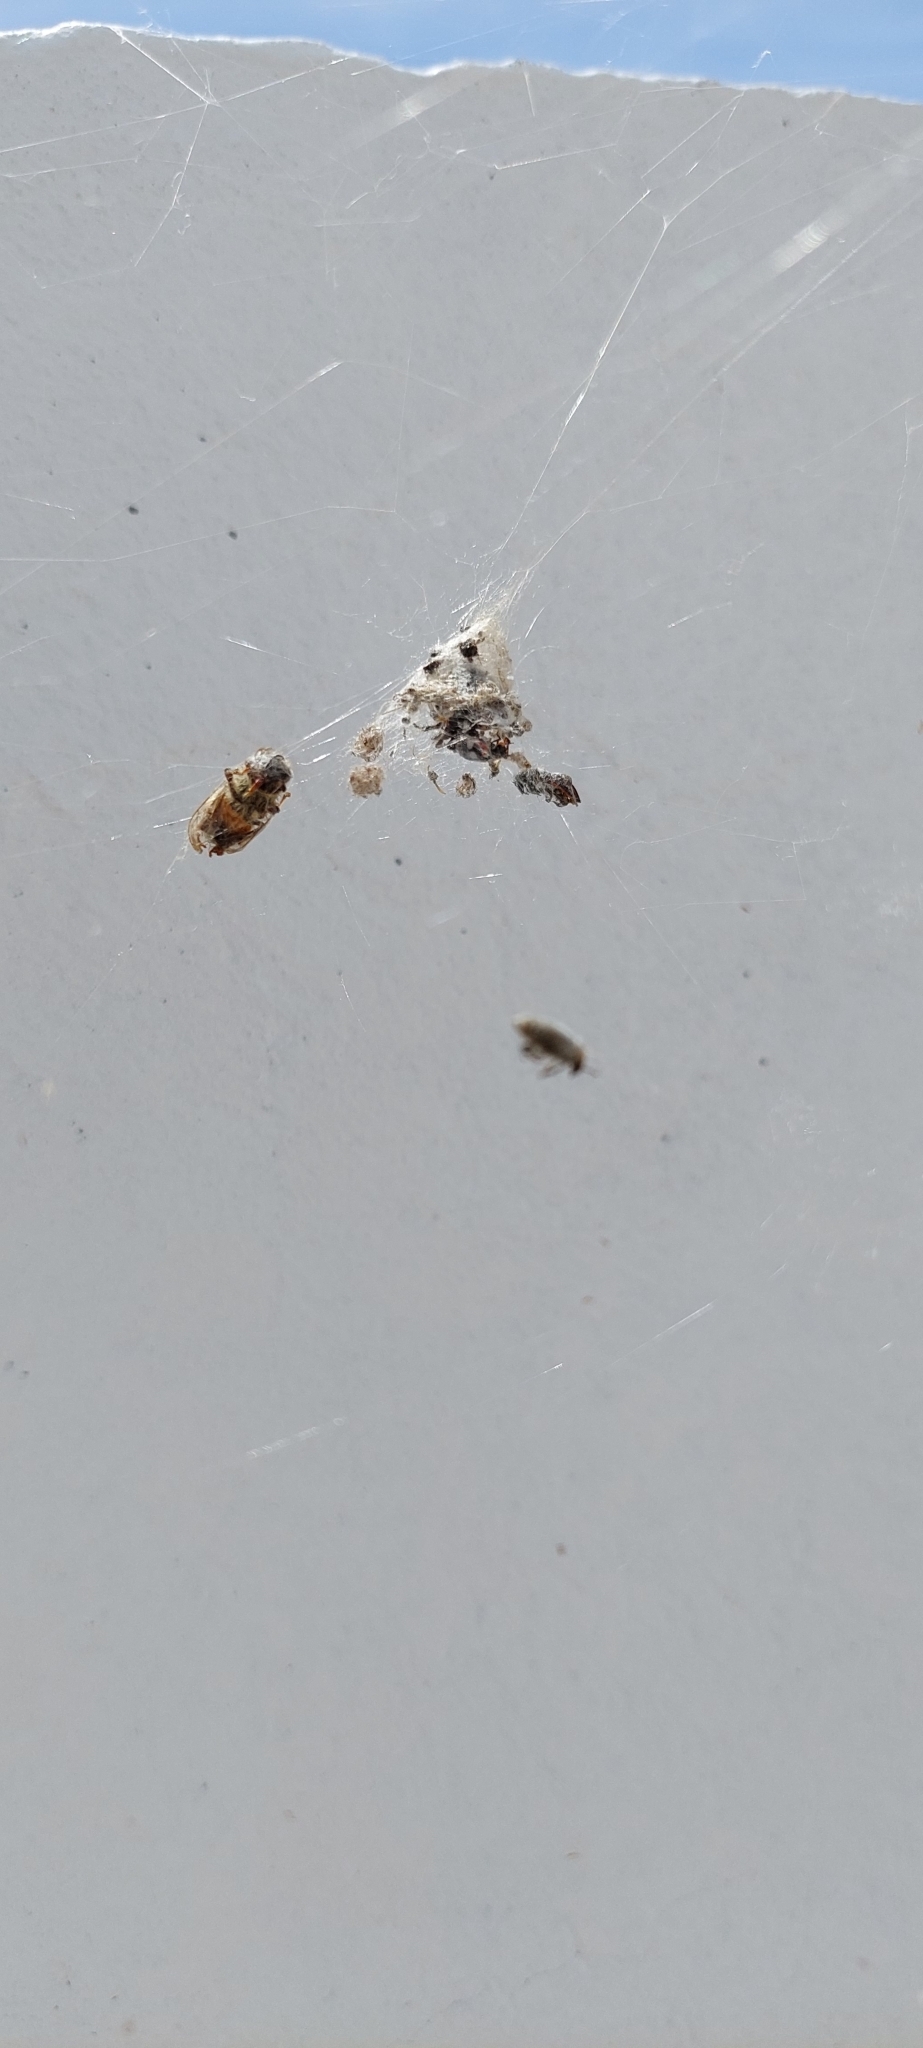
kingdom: Animalia
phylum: Arthropoda
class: Arachnida
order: Araneae
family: Araneidae
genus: Metepeira
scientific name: Metepeira
